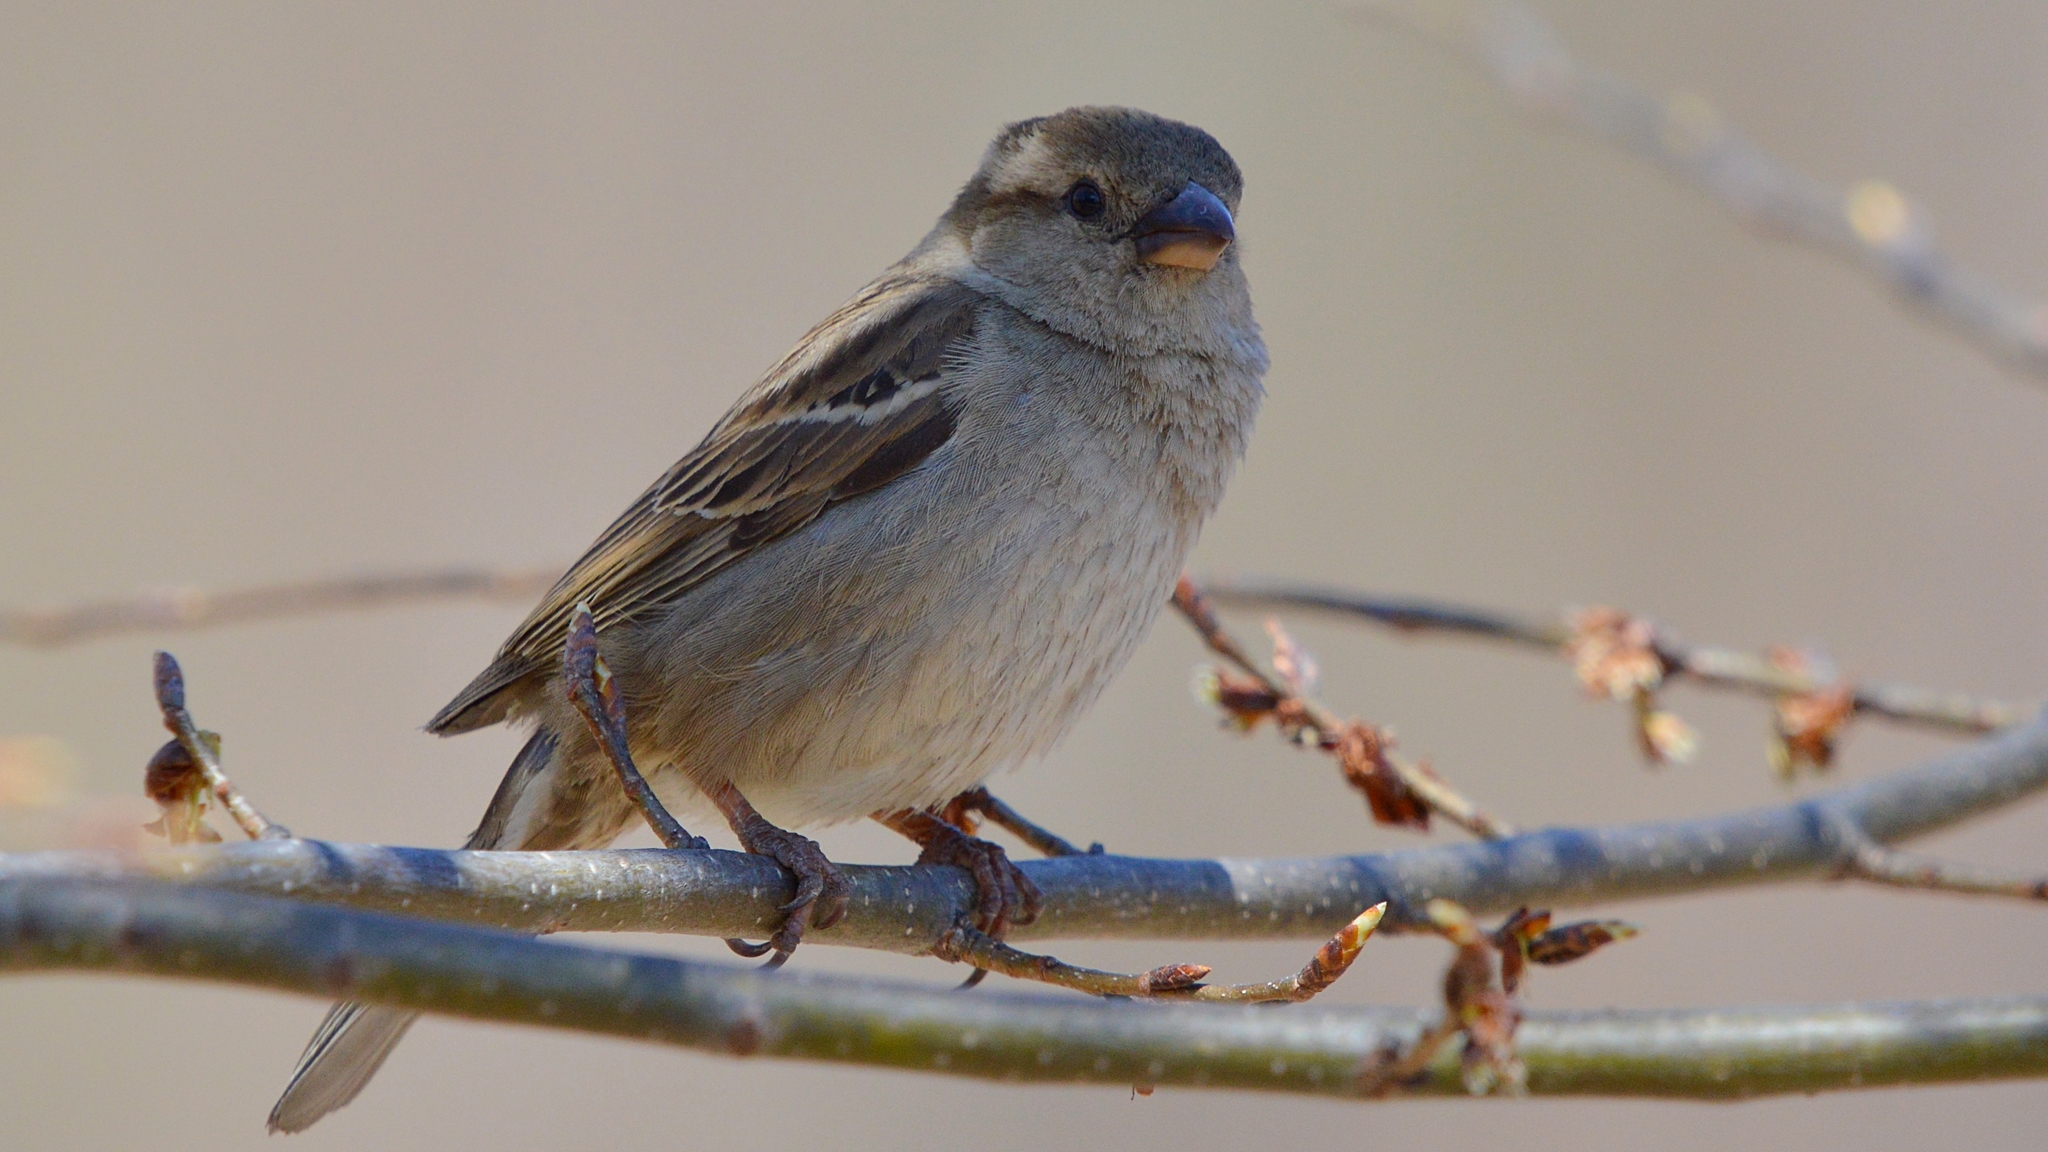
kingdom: Animalia
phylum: Chordata
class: Aves
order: Passeriformes
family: Passeridae
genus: Passer
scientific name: Passer domesticus
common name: House sparrow
